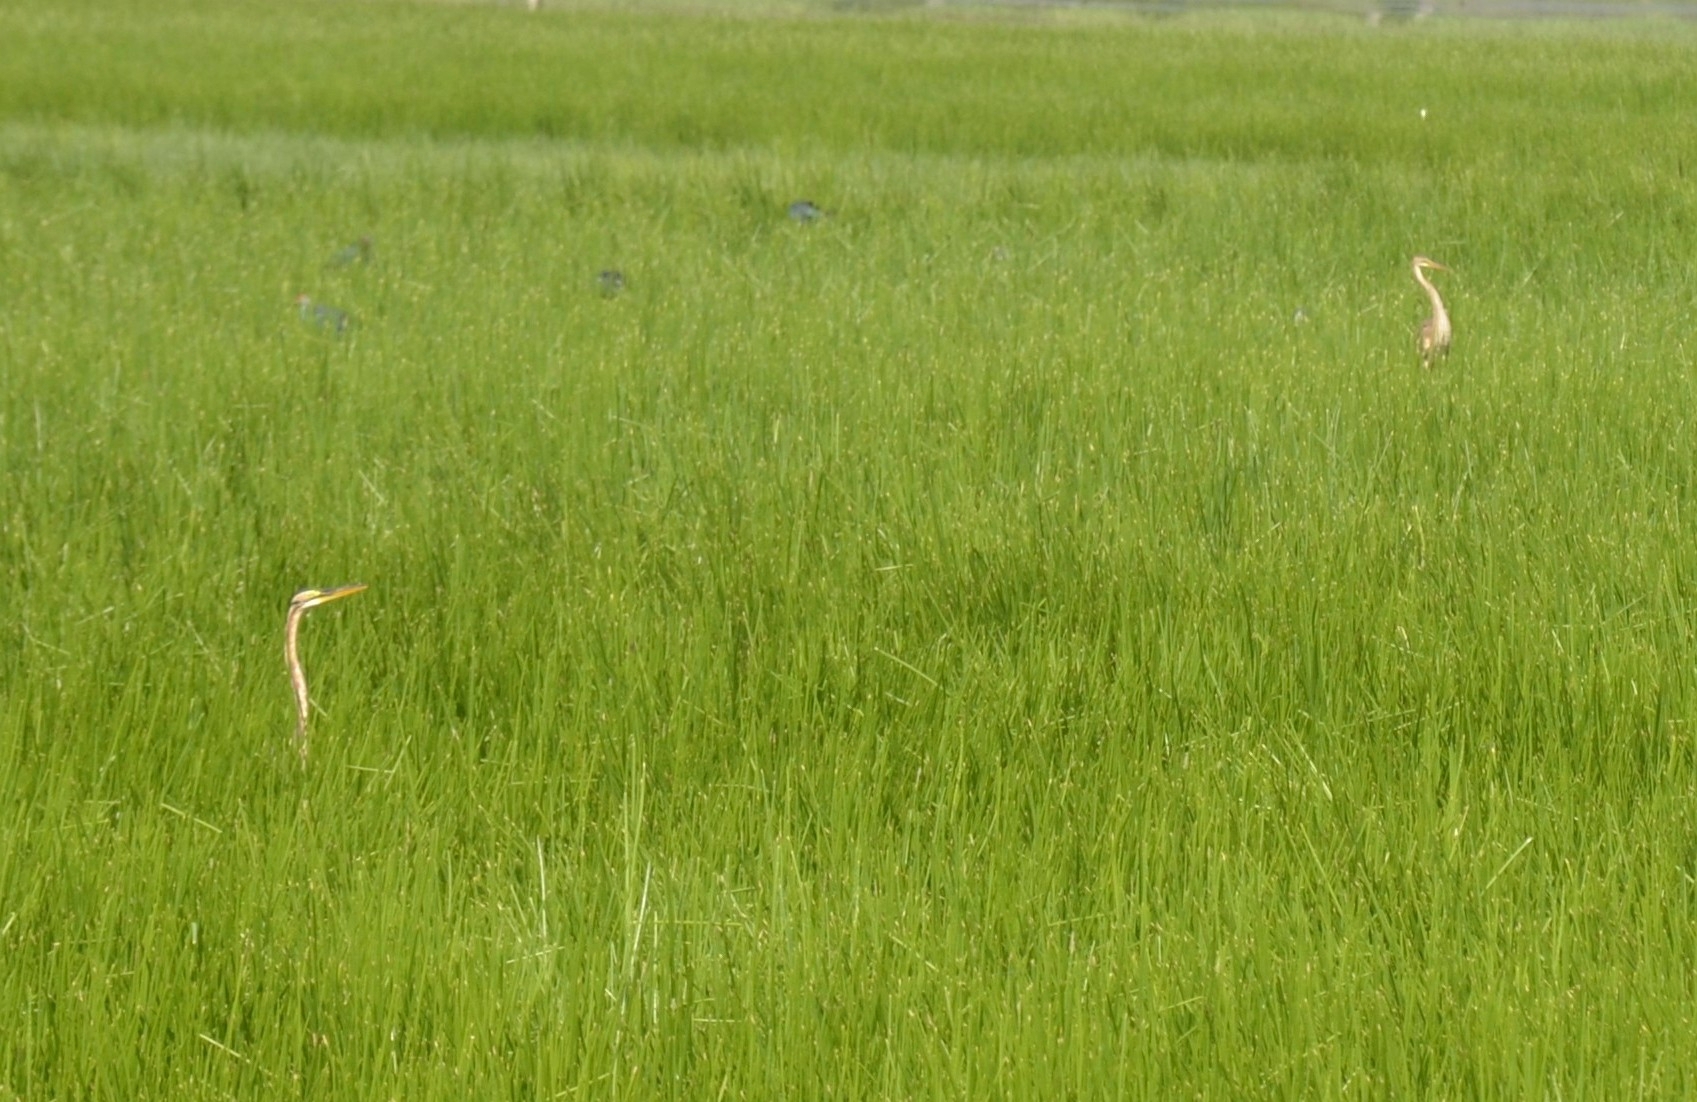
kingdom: Animalia
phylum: Chordata
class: Aves
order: Pelecaniformes
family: Ardeidae
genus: Ardea
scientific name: Ardea purpurea
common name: Purple heron
